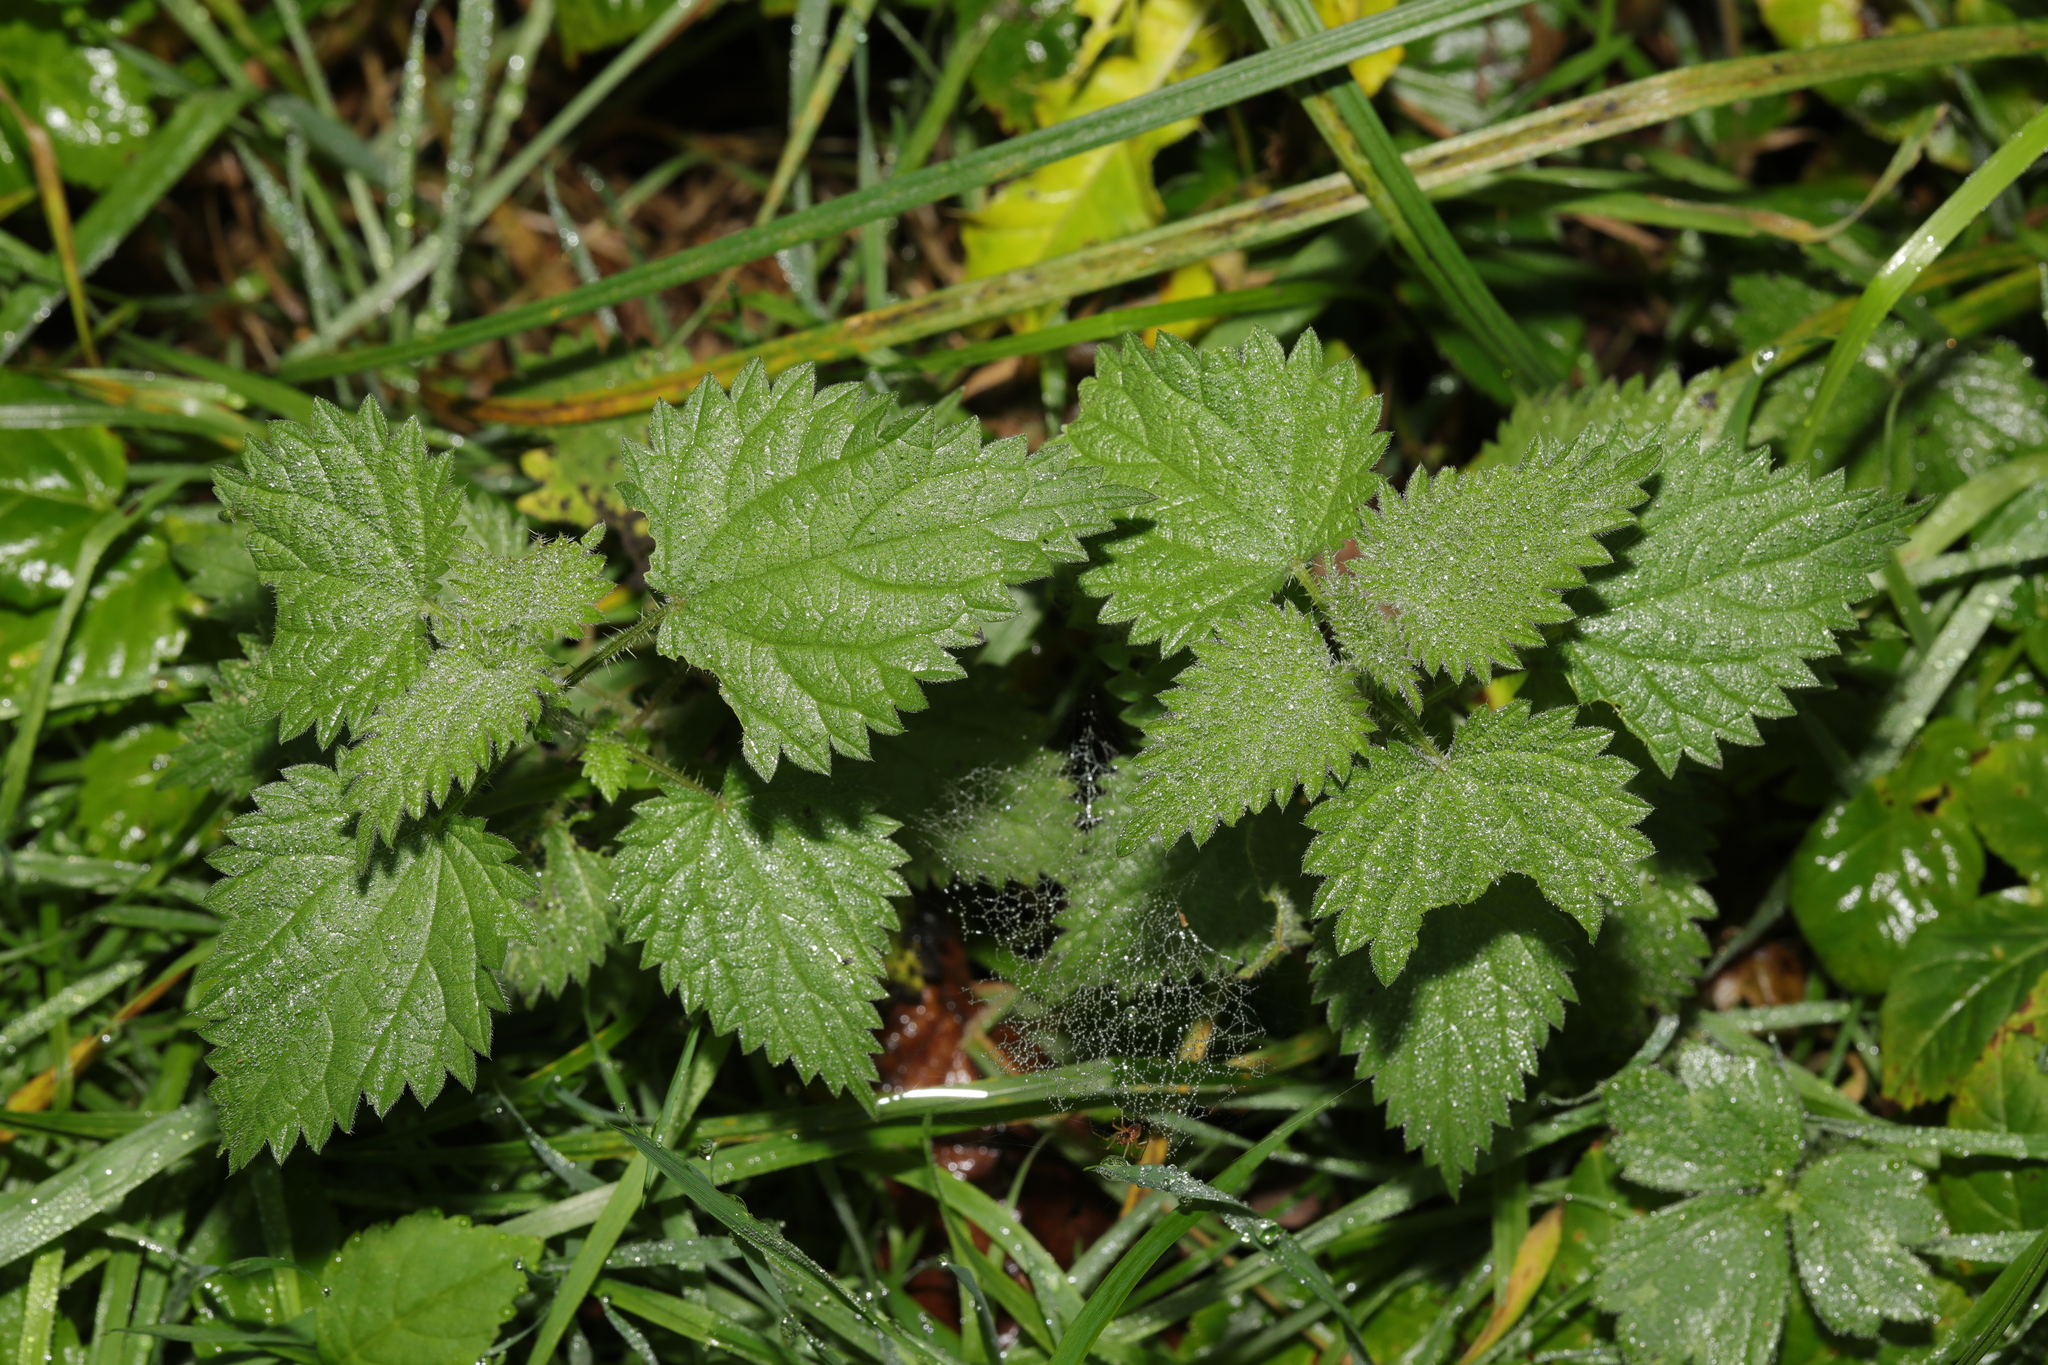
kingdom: Plantae
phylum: Tracheophyta
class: Magnoliopsida
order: Rosales
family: Urticaceae
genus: Urtica
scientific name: Urtica dioica
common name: Common nettle
